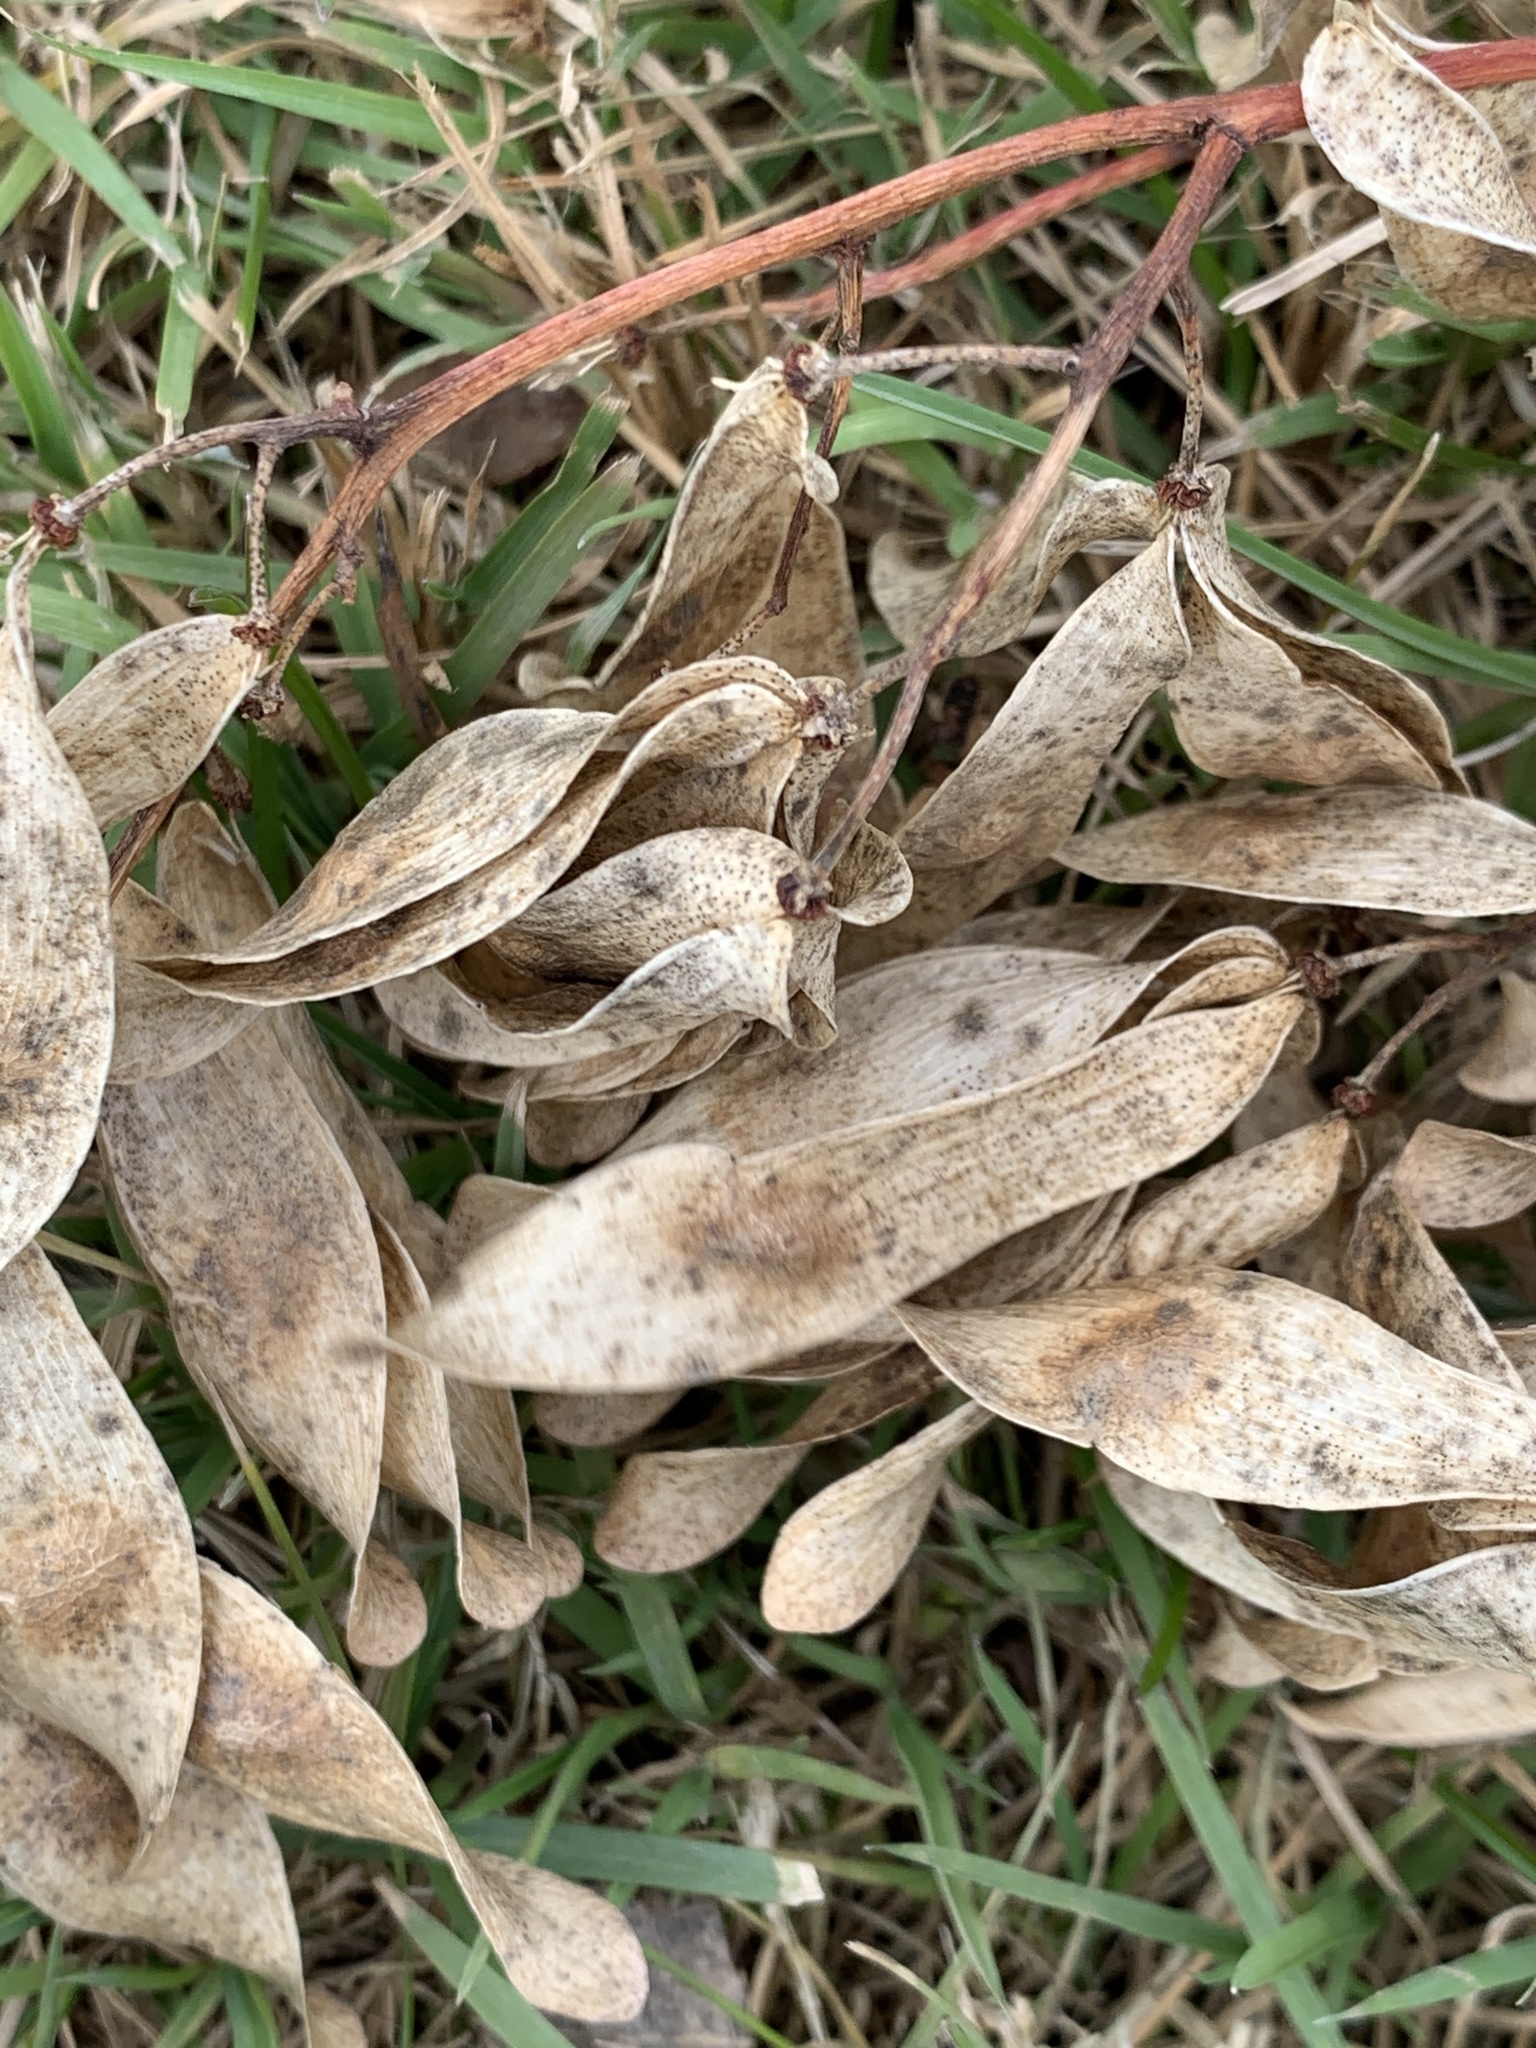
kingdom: Plantae
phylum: Tracheophyta
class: Magnoliopsida
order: Sapindales
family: Simaroubaceae
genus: Ailanthus
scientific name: Ailanthus altissima
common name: Tree-of-heaven
